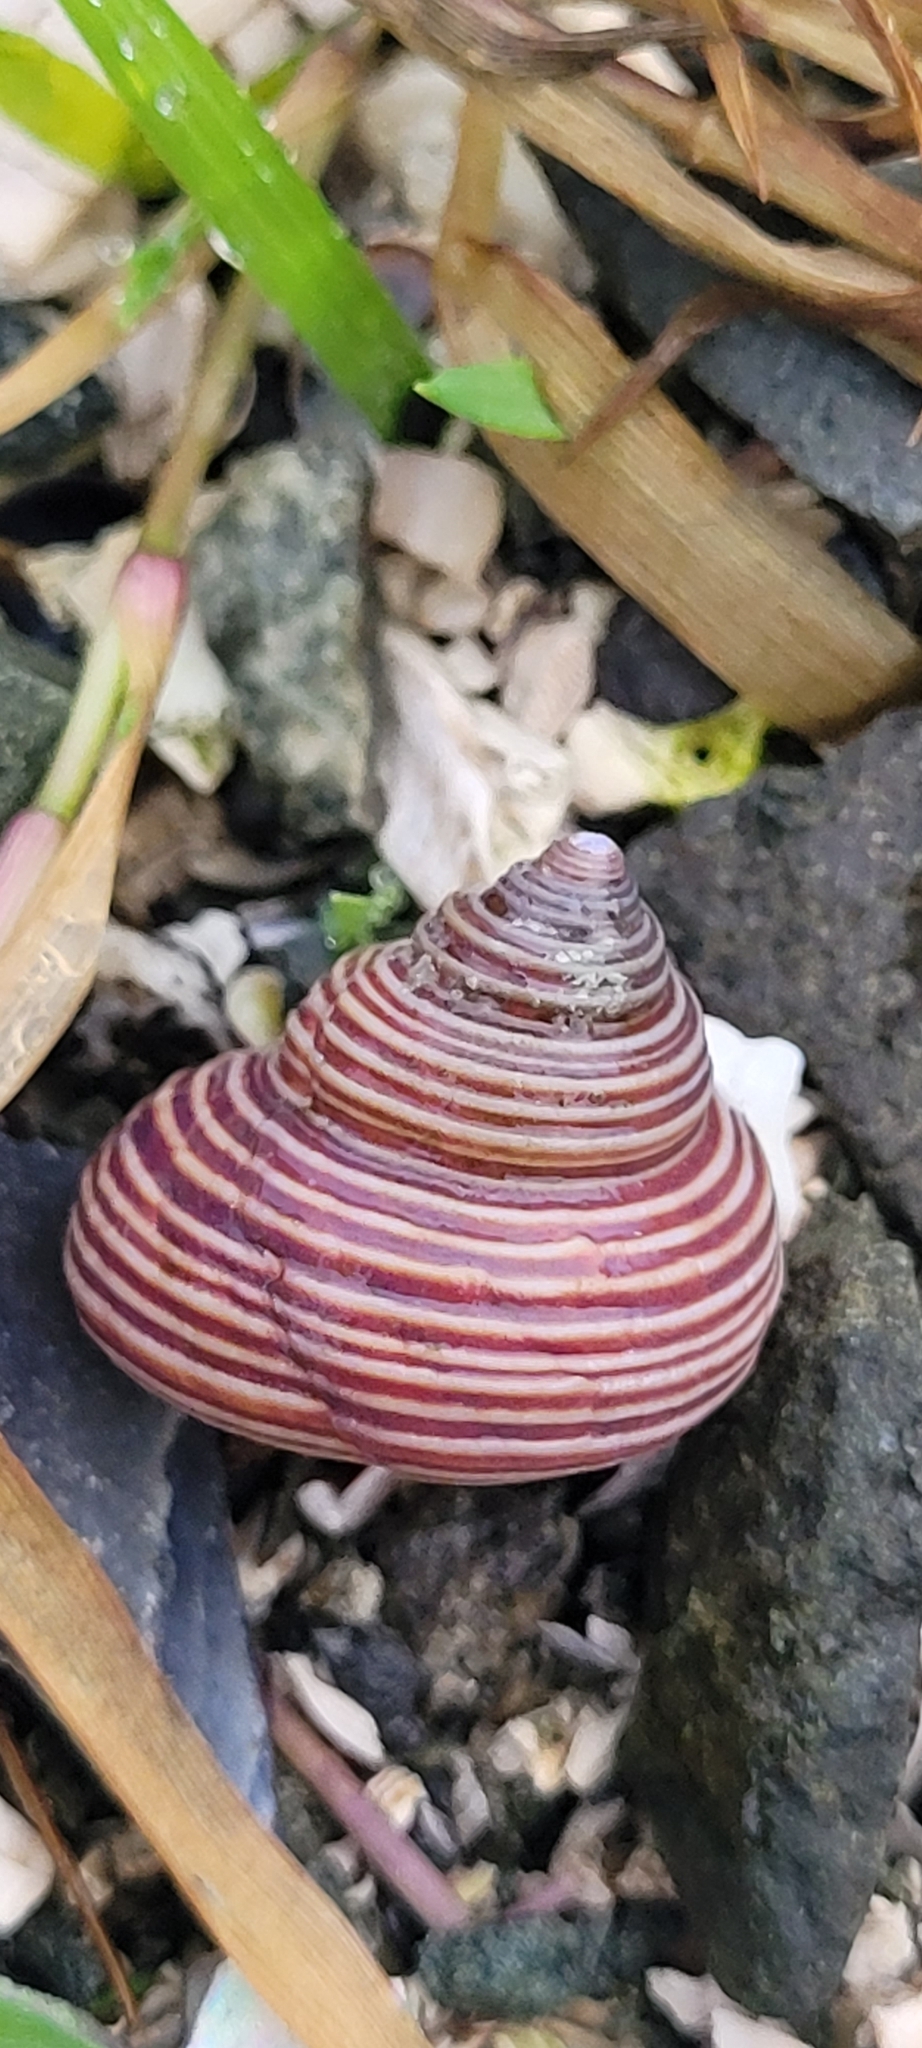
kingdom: Animalia
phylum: Mollusca
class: Gastropoda
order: Trochida
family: Calliostomatidae
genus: Calliostoma
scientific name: Calliostoma ligatum
